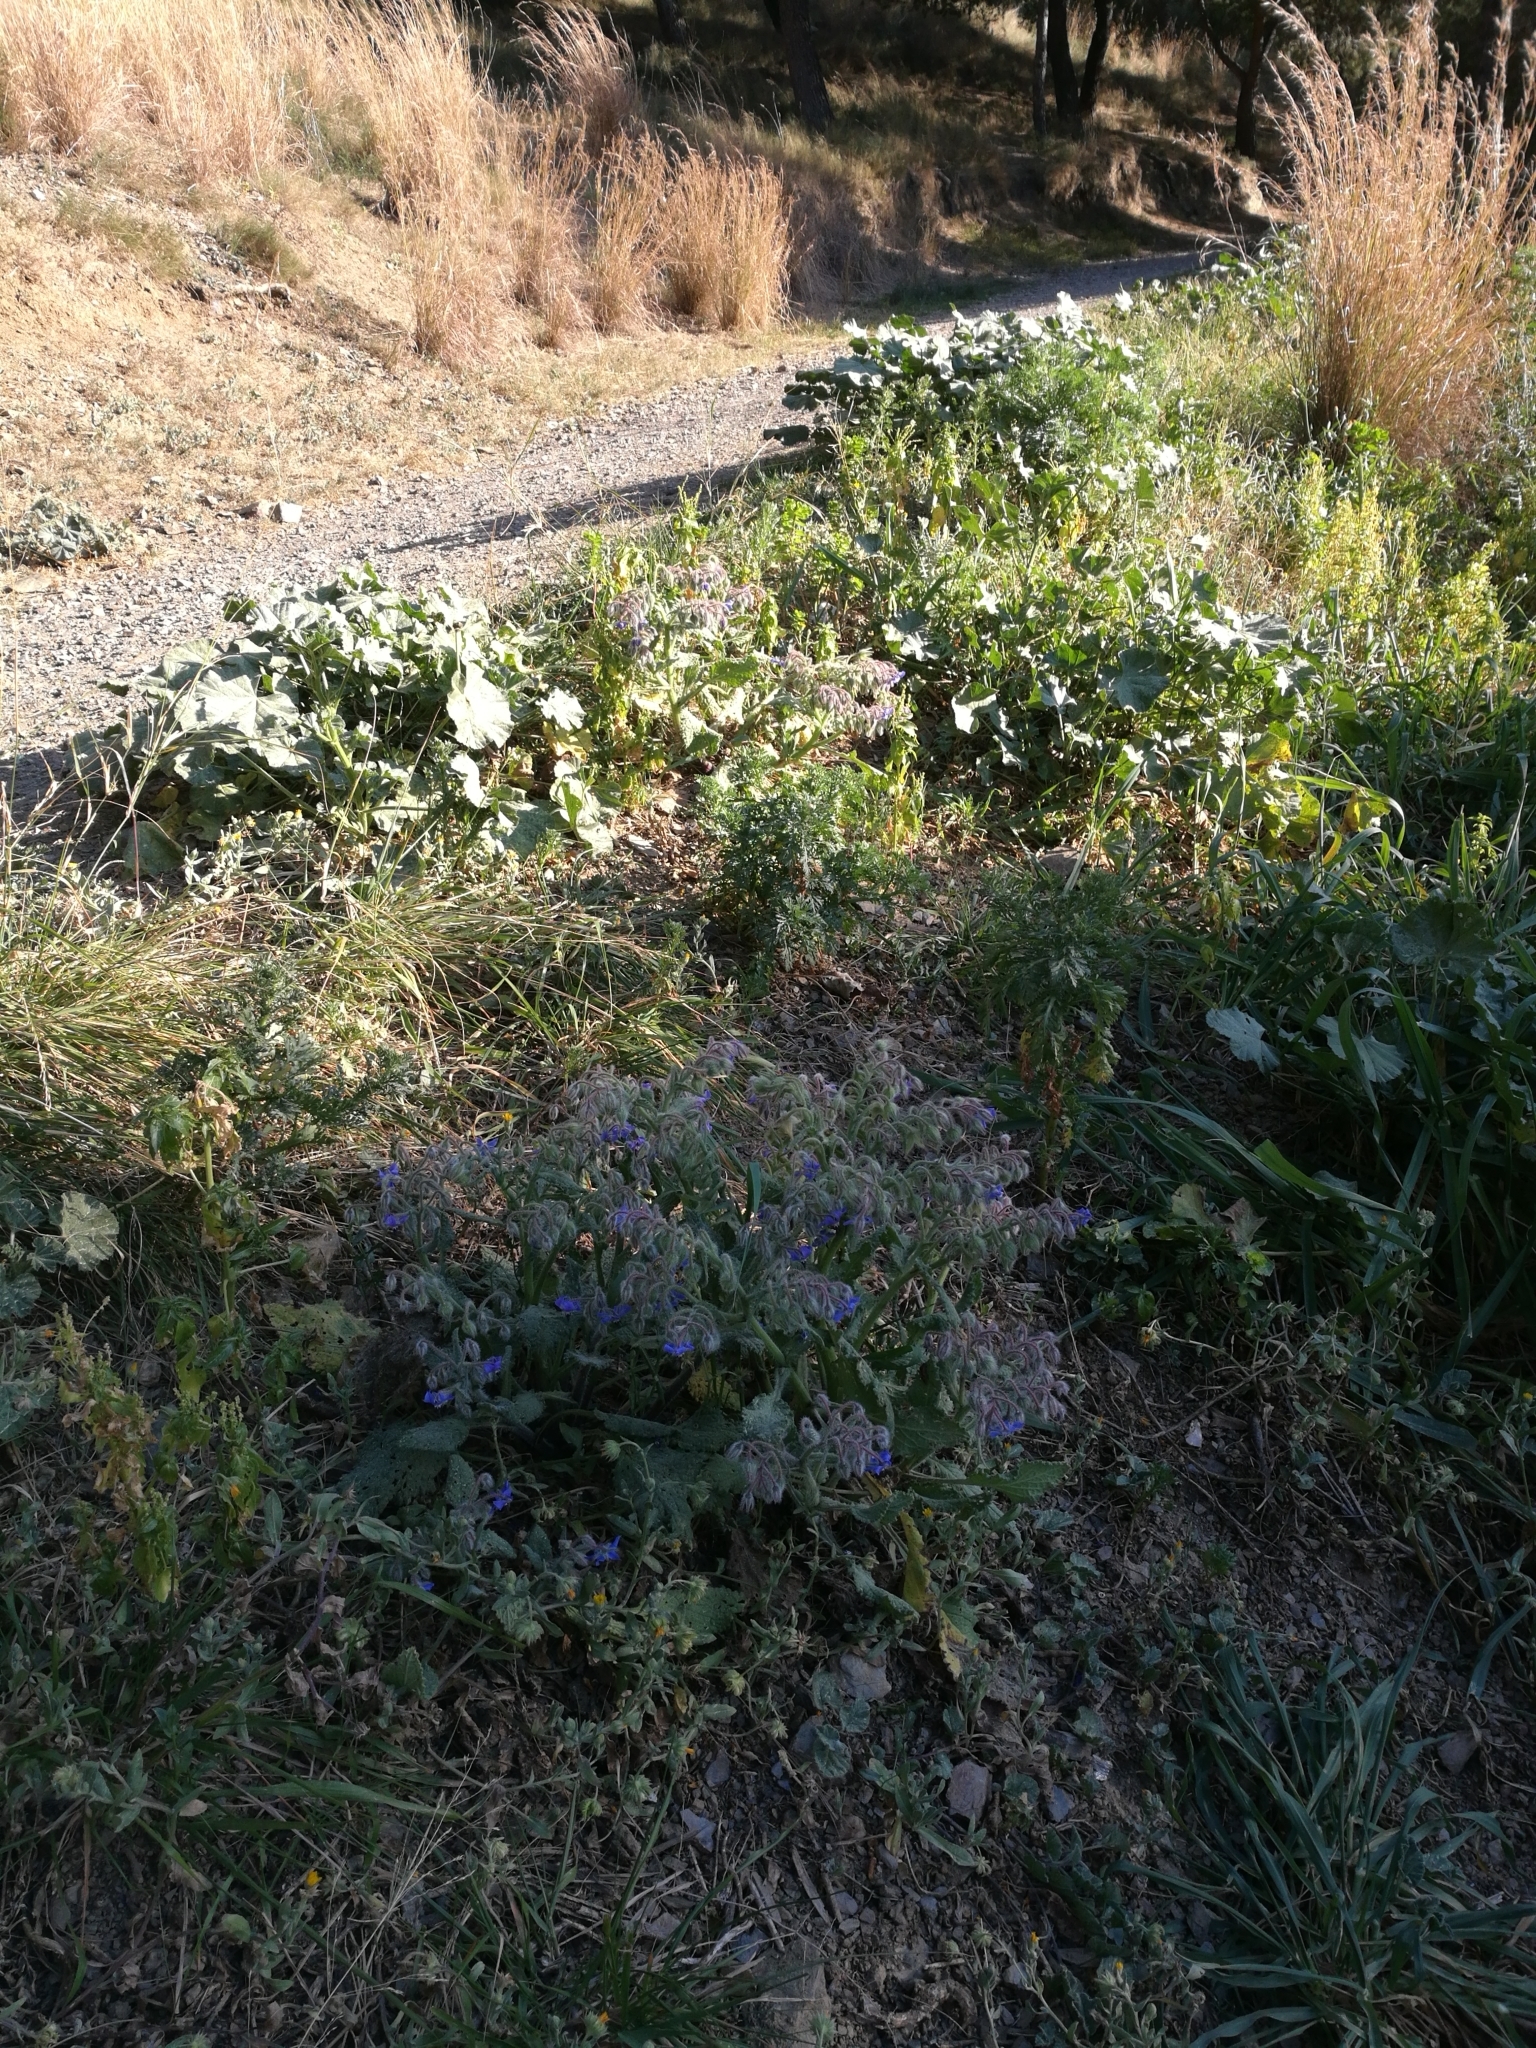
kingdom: Plantae
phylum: Tracheophyta
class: Magnoliopsida
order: Boraginales
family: Boraginaceae
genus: Borago
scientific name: Borago officinalis
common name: Borage
